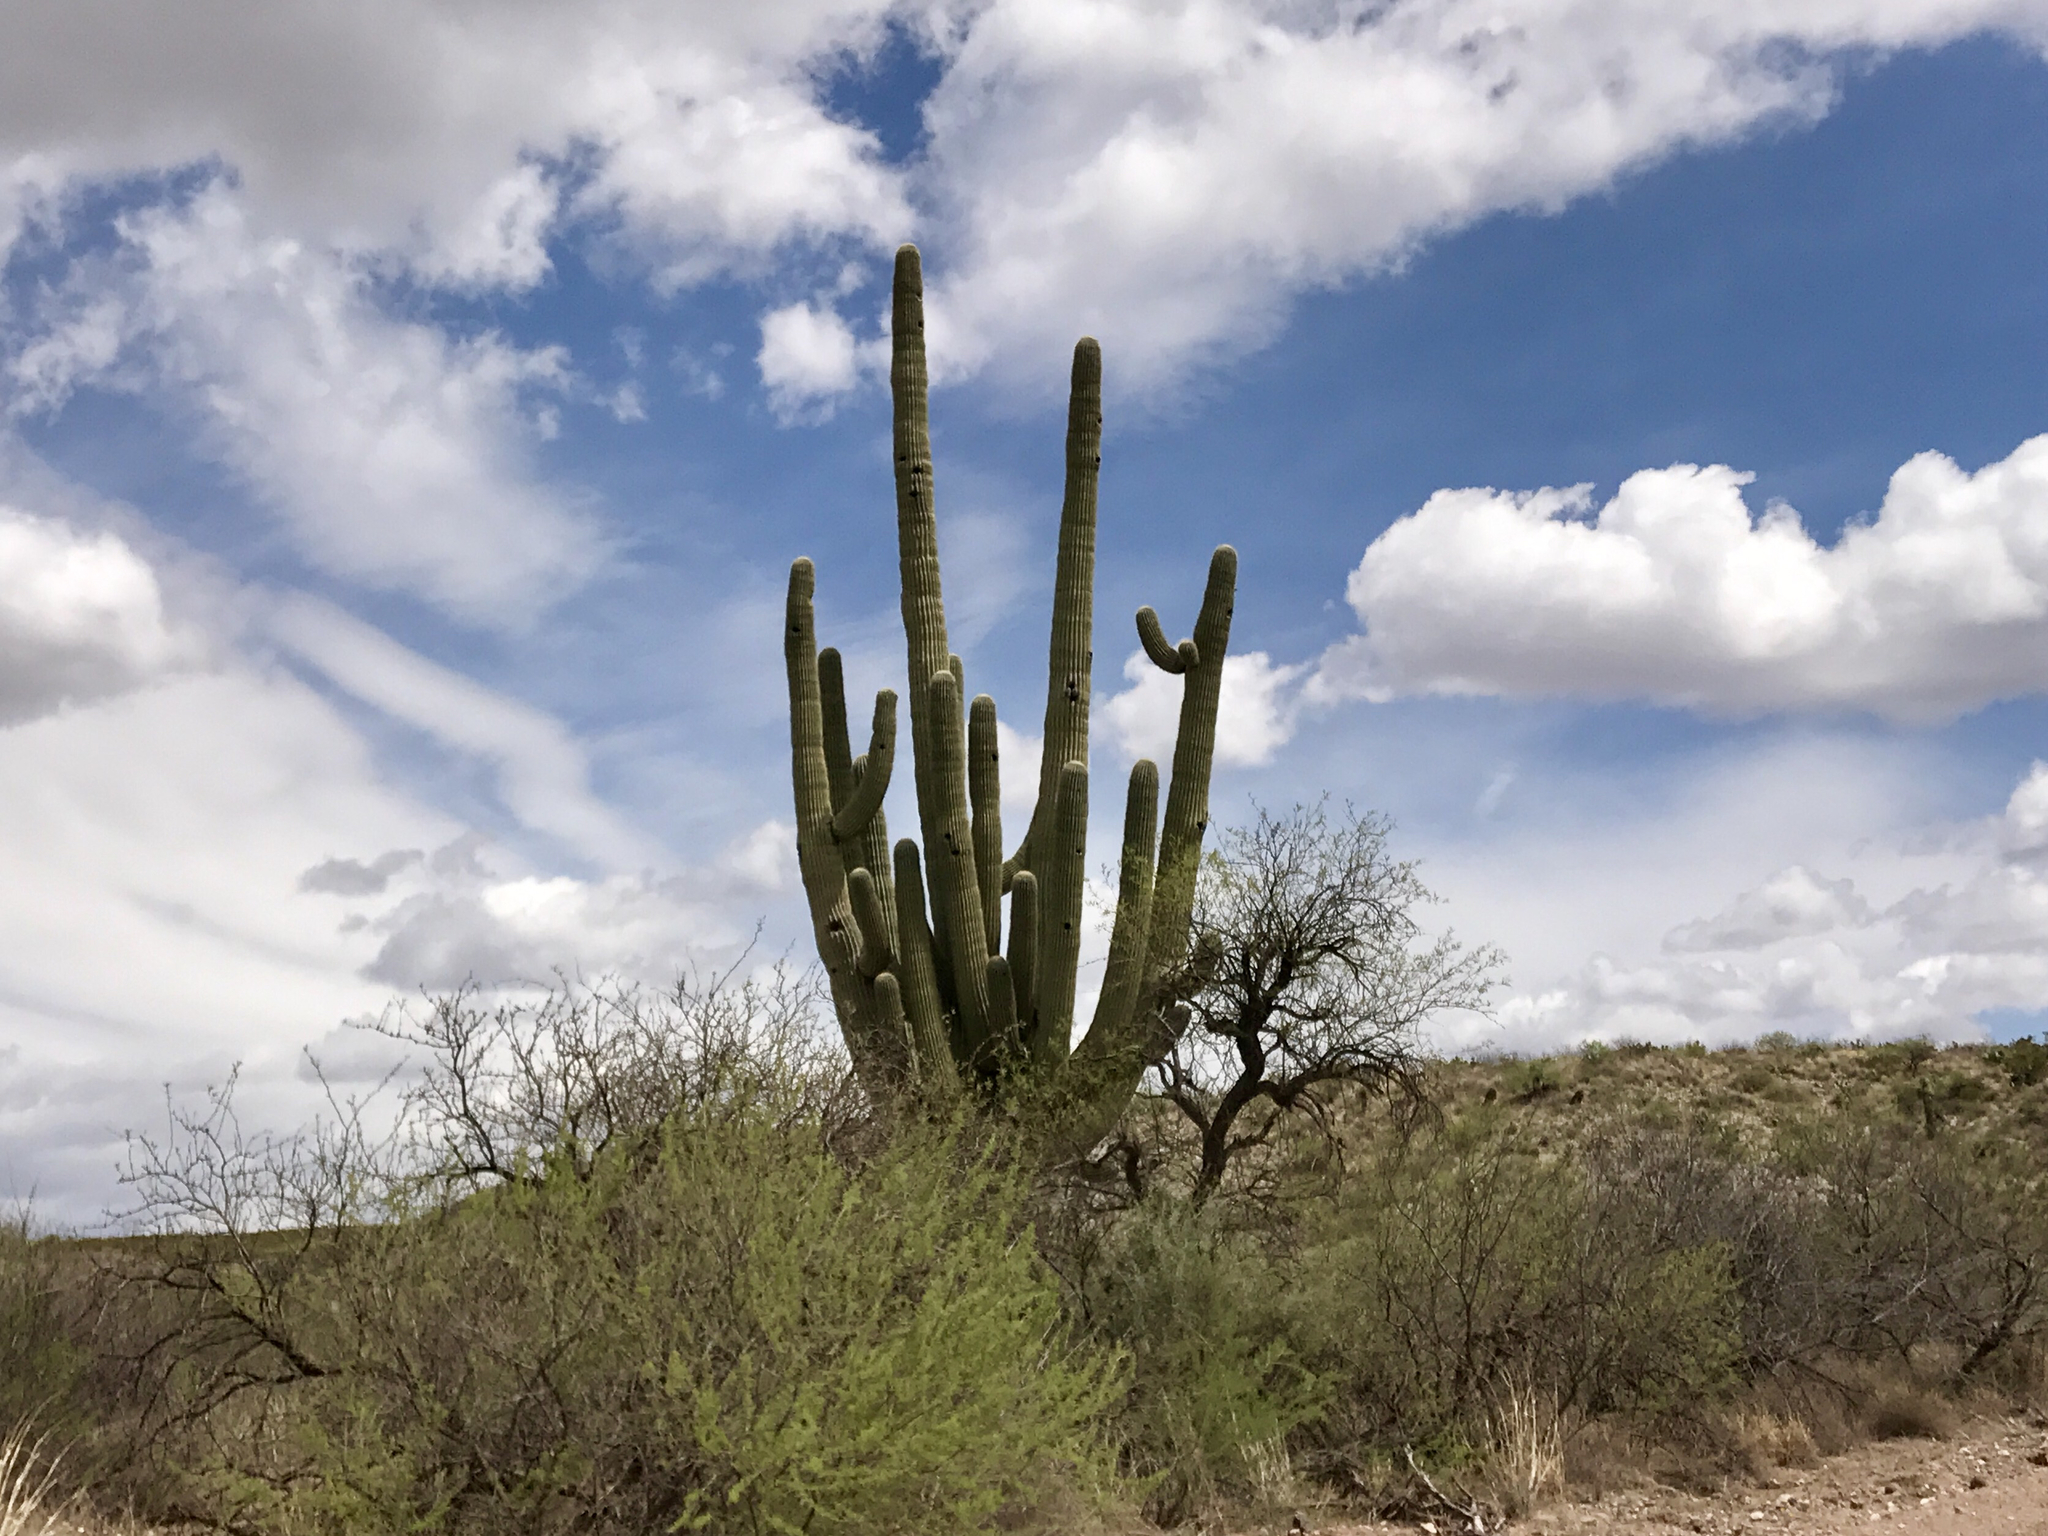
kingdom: Plantae
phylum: Tracheophyta
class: Magnoliopsida
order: Caryophyllales
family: Cactaceae
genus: Carnegiea
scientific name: Carnegiea gigantea
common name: Saguaro
